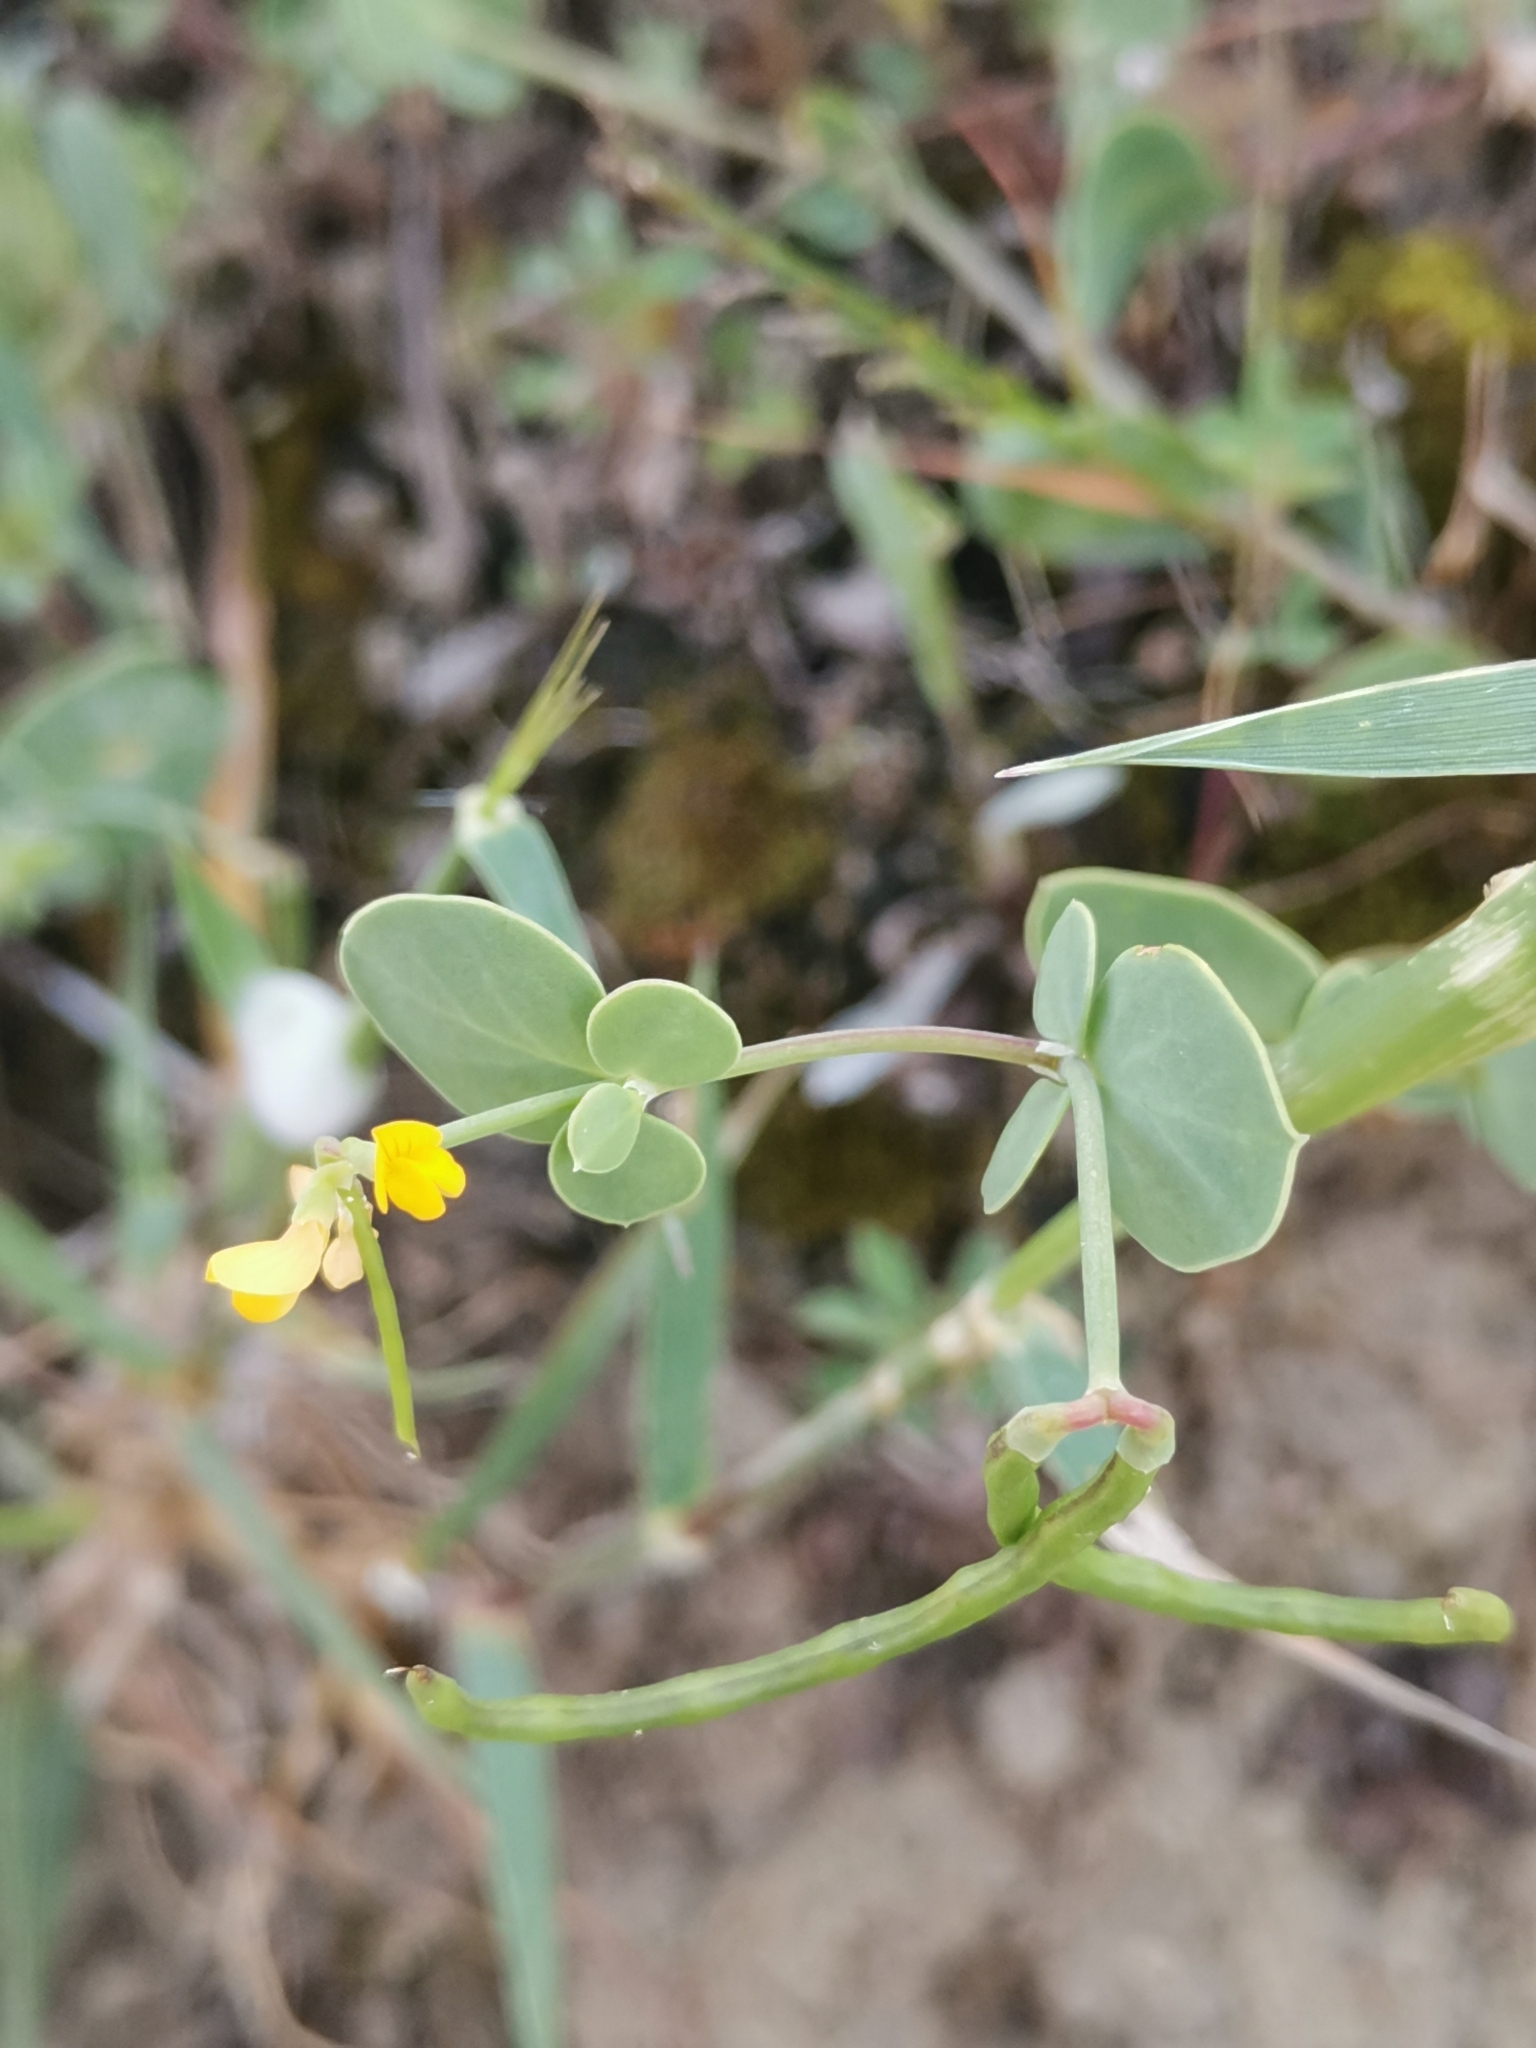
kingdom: Plantae
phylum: Tracheophyta
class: Magnoliopsida
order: Fabales
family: Fabaceae
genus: Coronilla
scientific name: Coronilla scorpioides
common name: Annual scorpion-vetch
